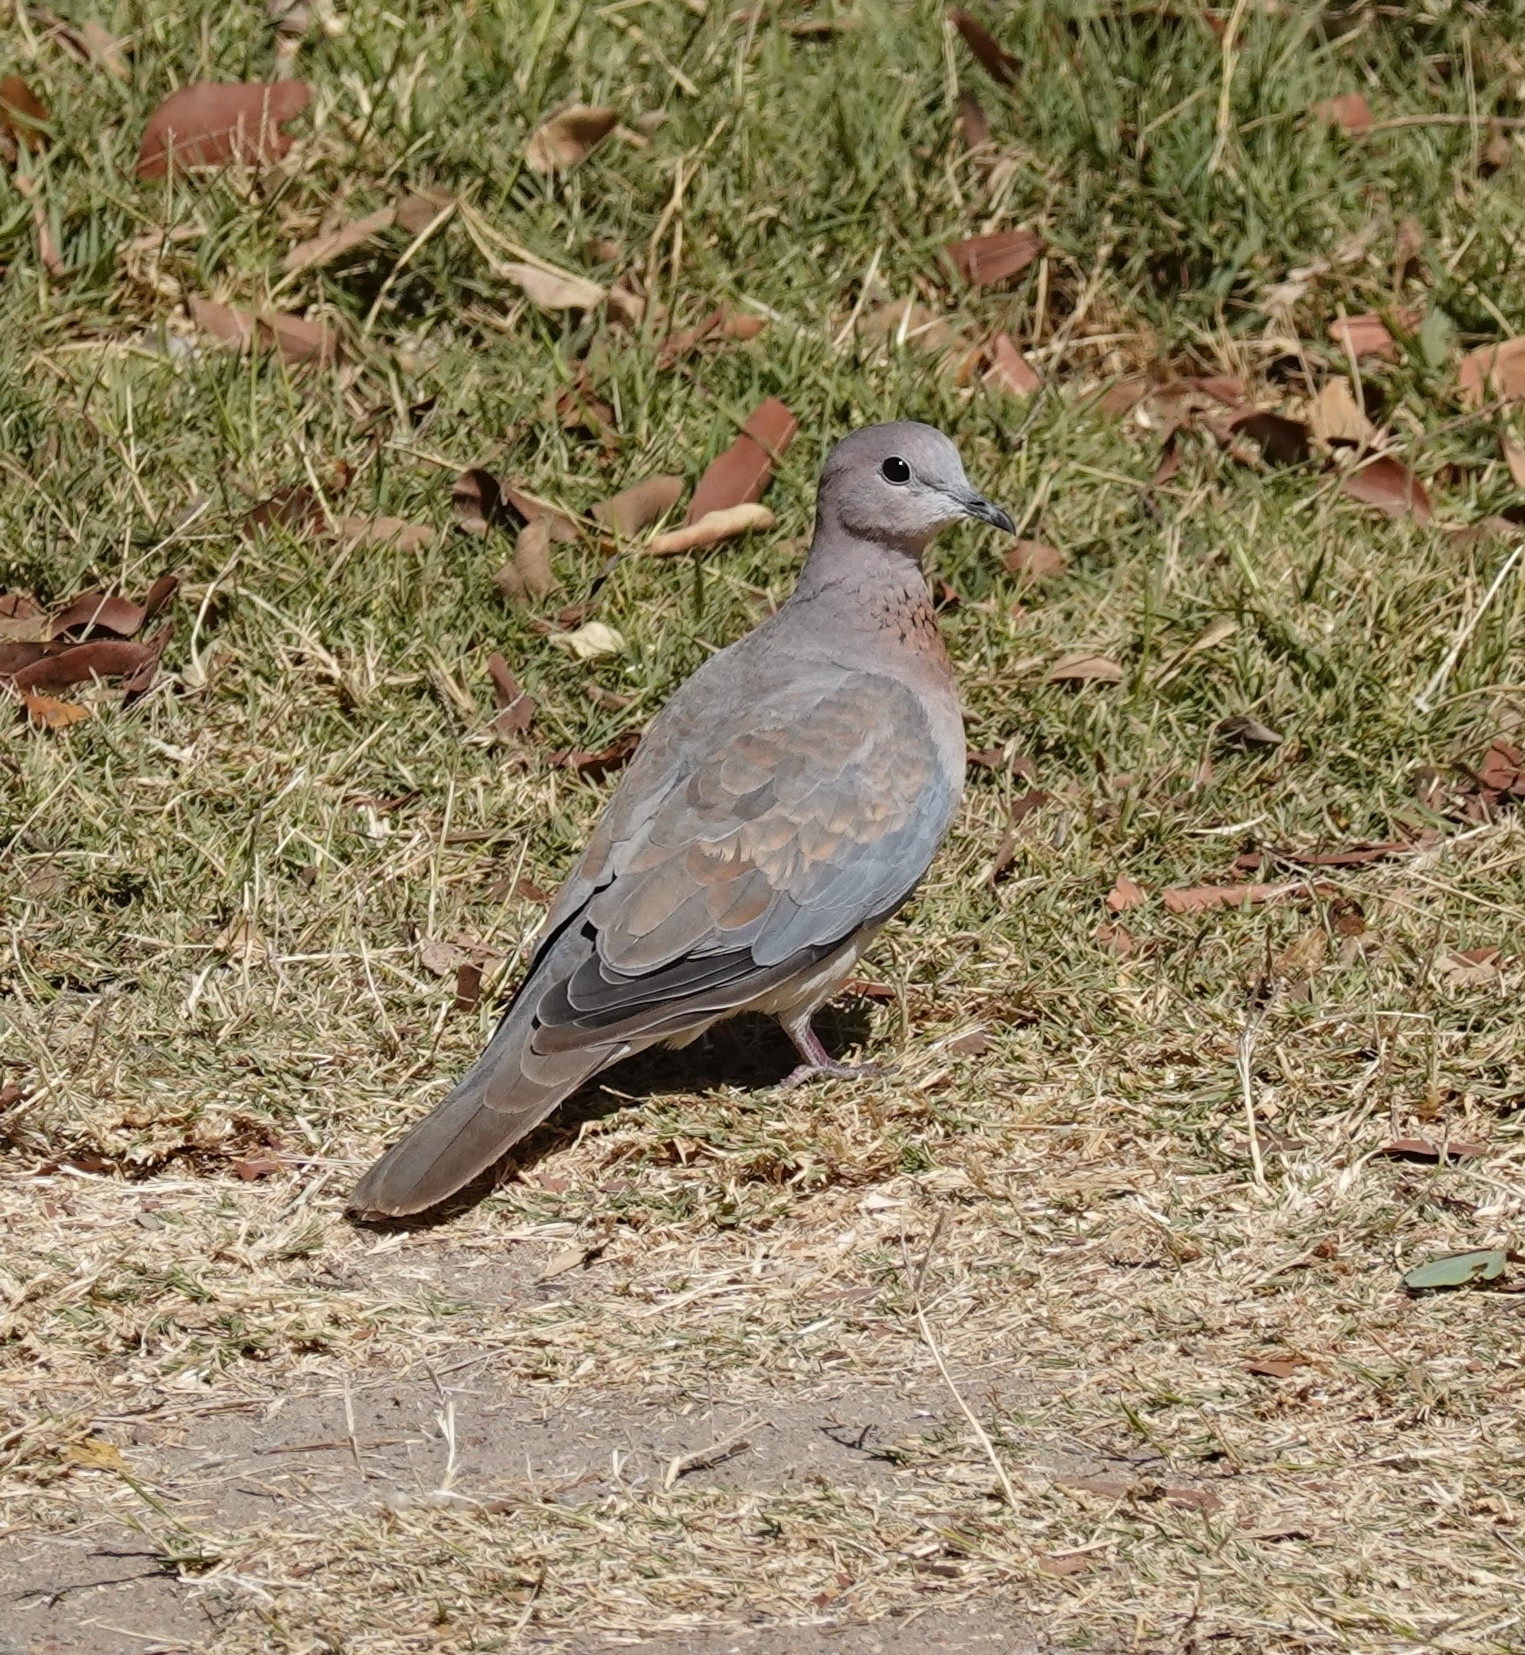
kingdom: Animalia
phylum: Chordata
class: Aves
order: Columbiformes
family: Columbidae
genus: Spilopelia
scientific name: Spilopelia senegalensis
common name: Laughing dove
